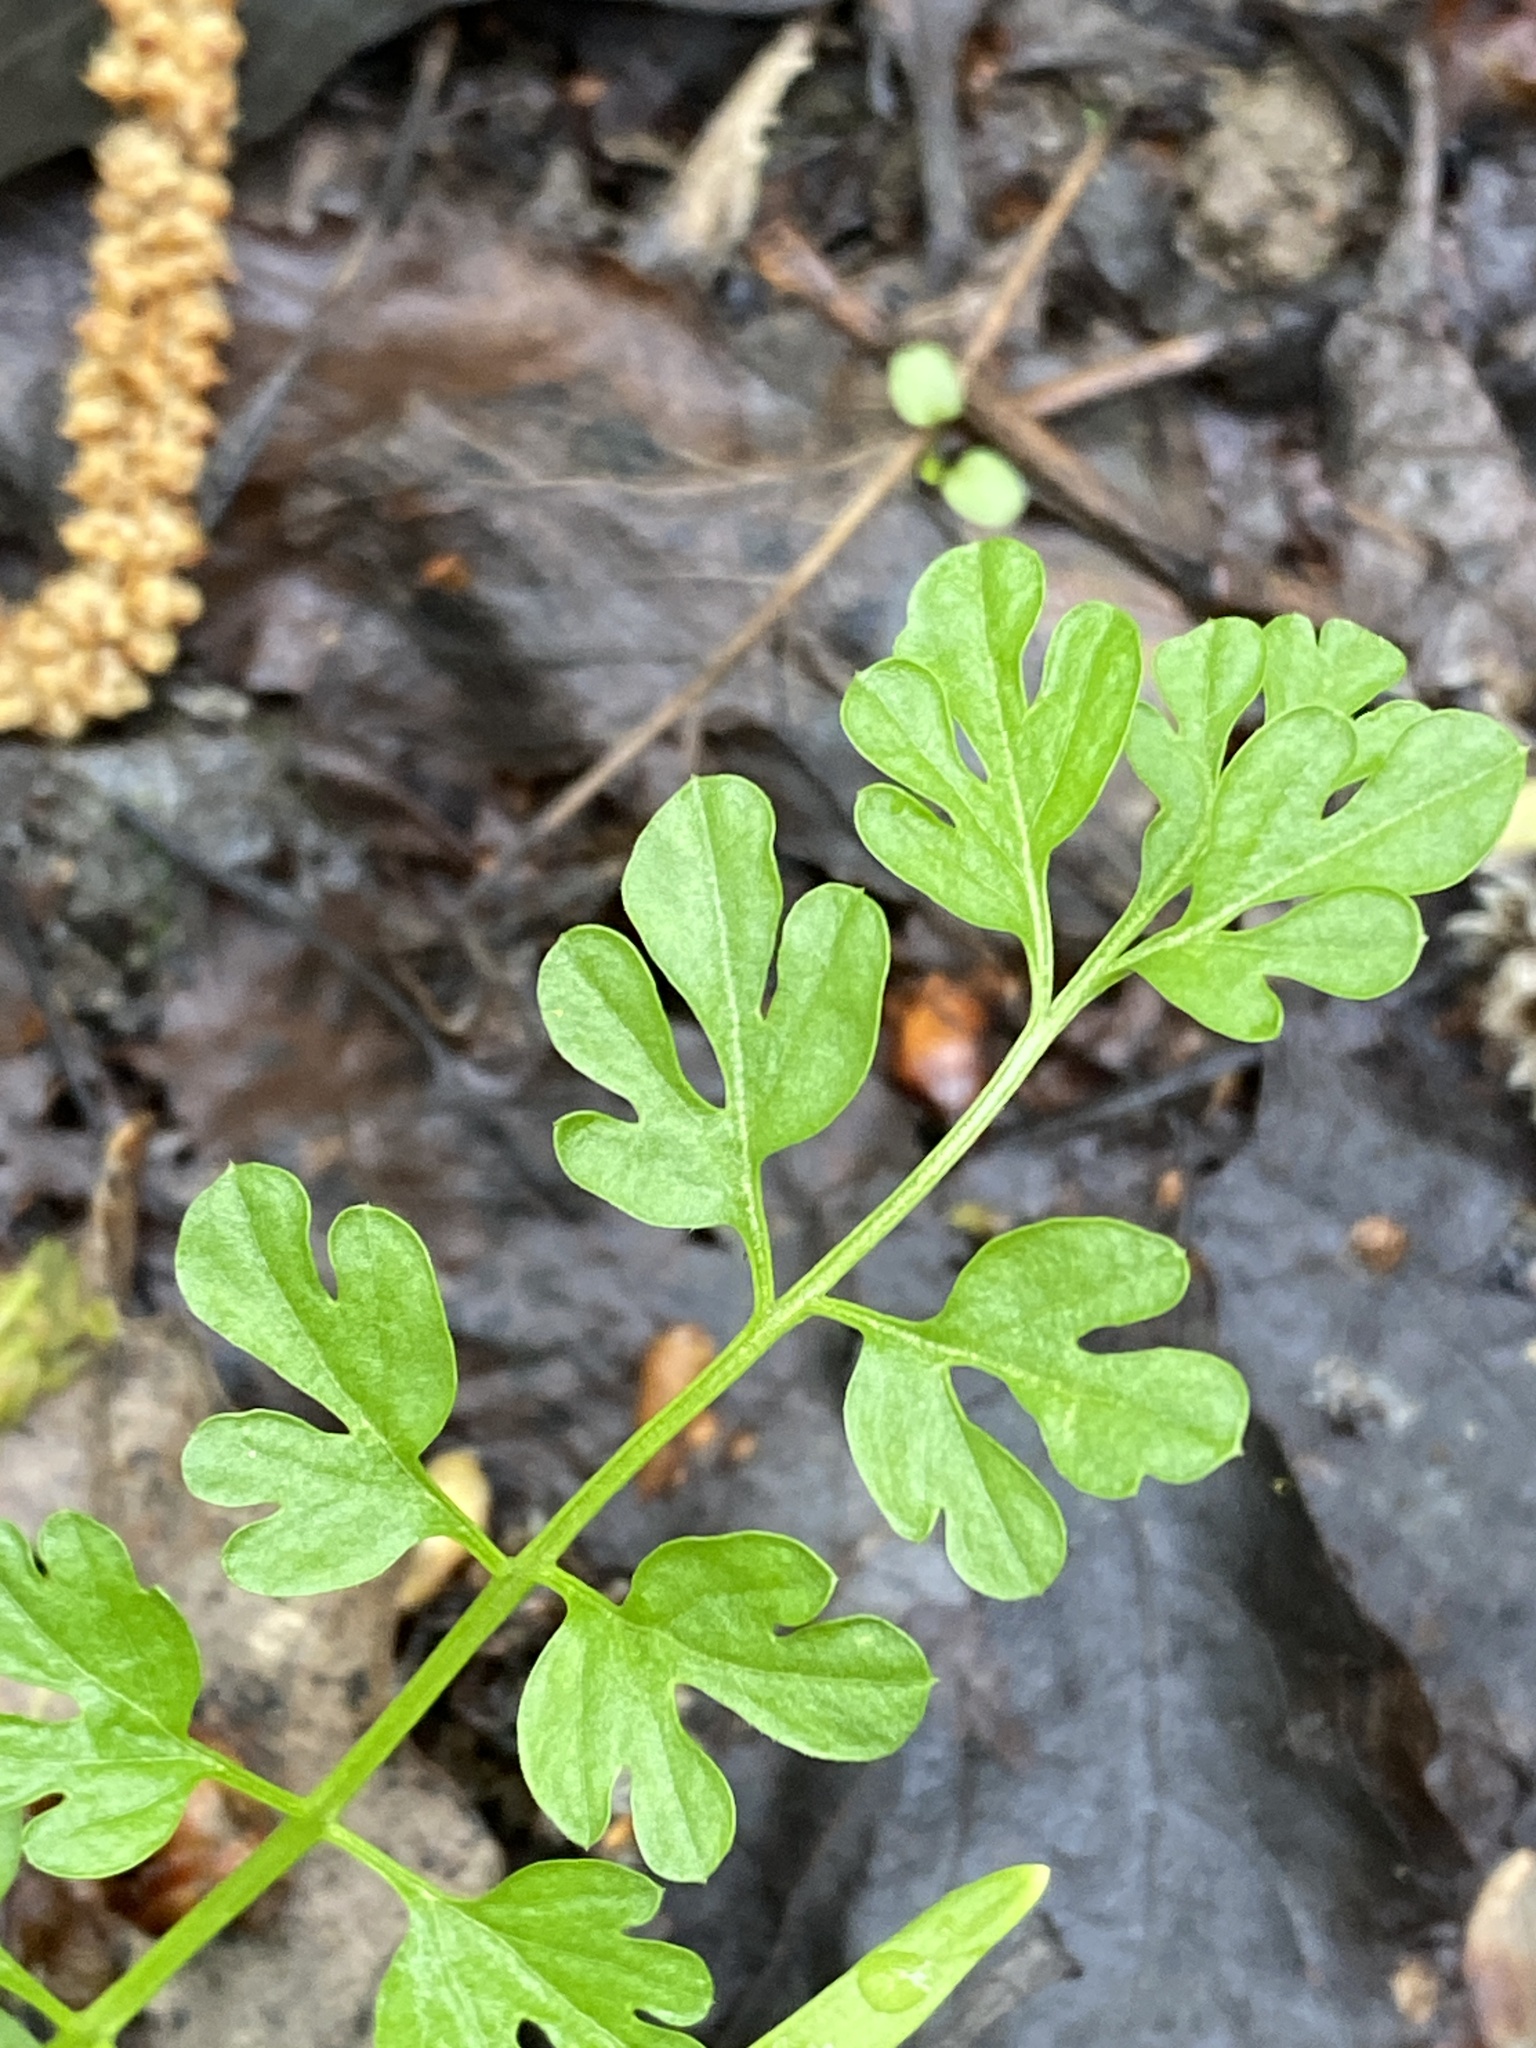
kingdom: Plantae
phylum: Tracheophyta
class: Magnoliopsida
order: Brassicales
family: Brassicaceae
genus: Cardamine
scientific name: Cardamine impatiens
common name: Narrow-leaved bitter-cress
